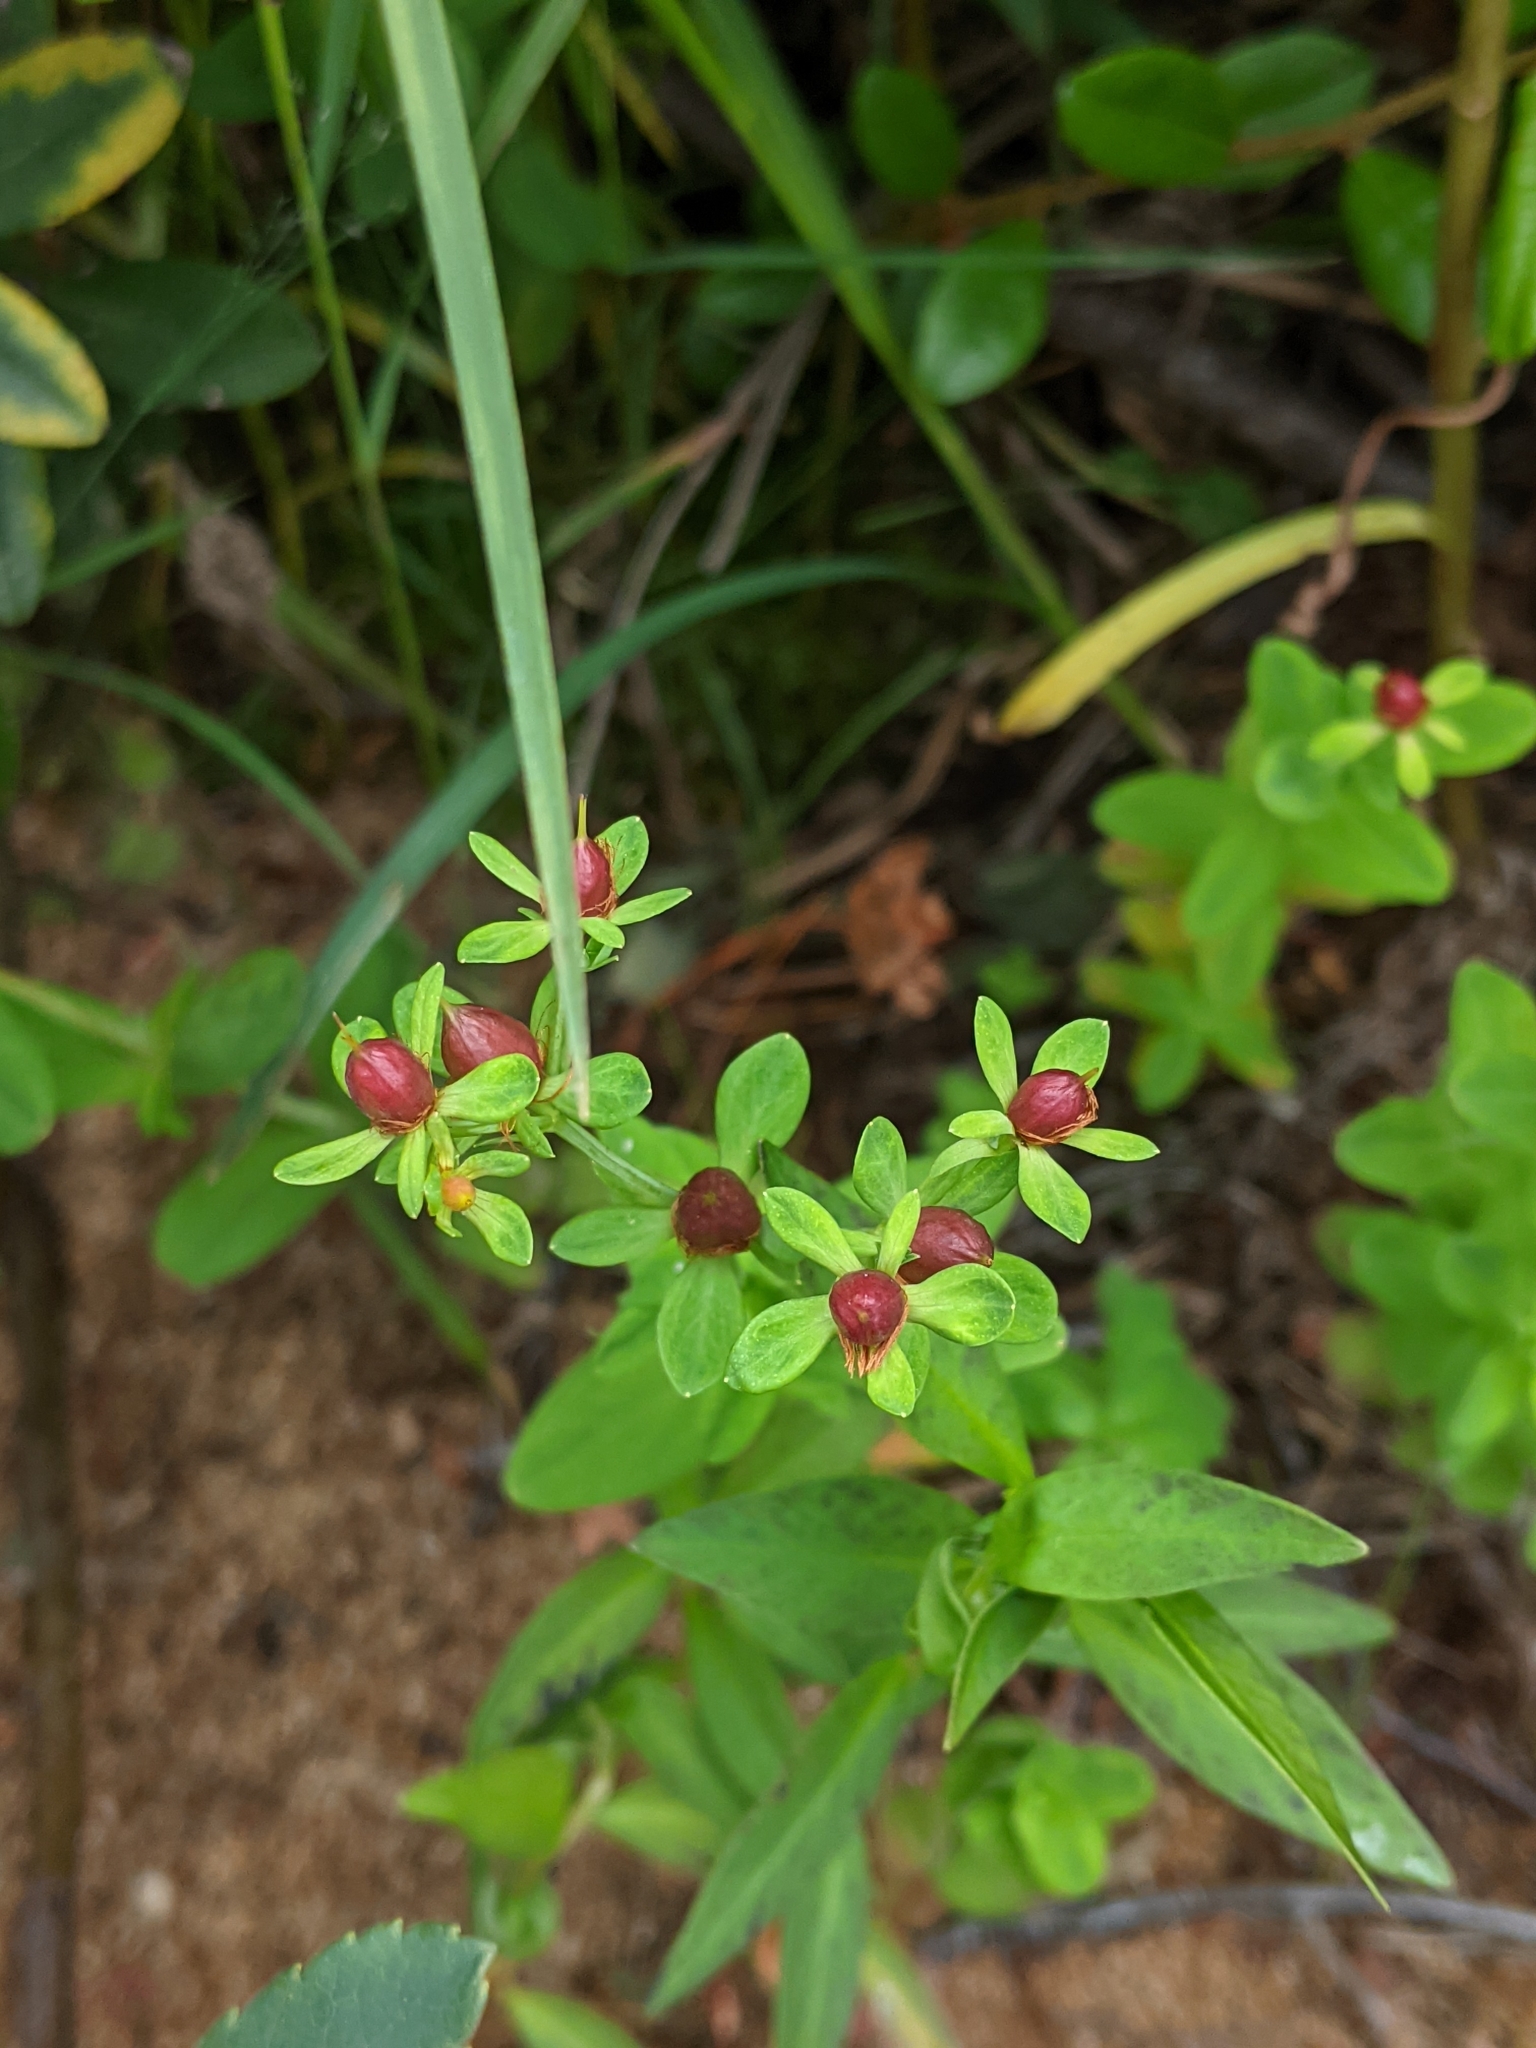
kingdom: Plantae
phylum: Tracheophyta
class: Magnoliopsida
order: Malpighiales
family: Hypericaceae
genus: Hypericum
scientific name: Hypericum ellipticum
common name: Elliptic st. john's-wort
